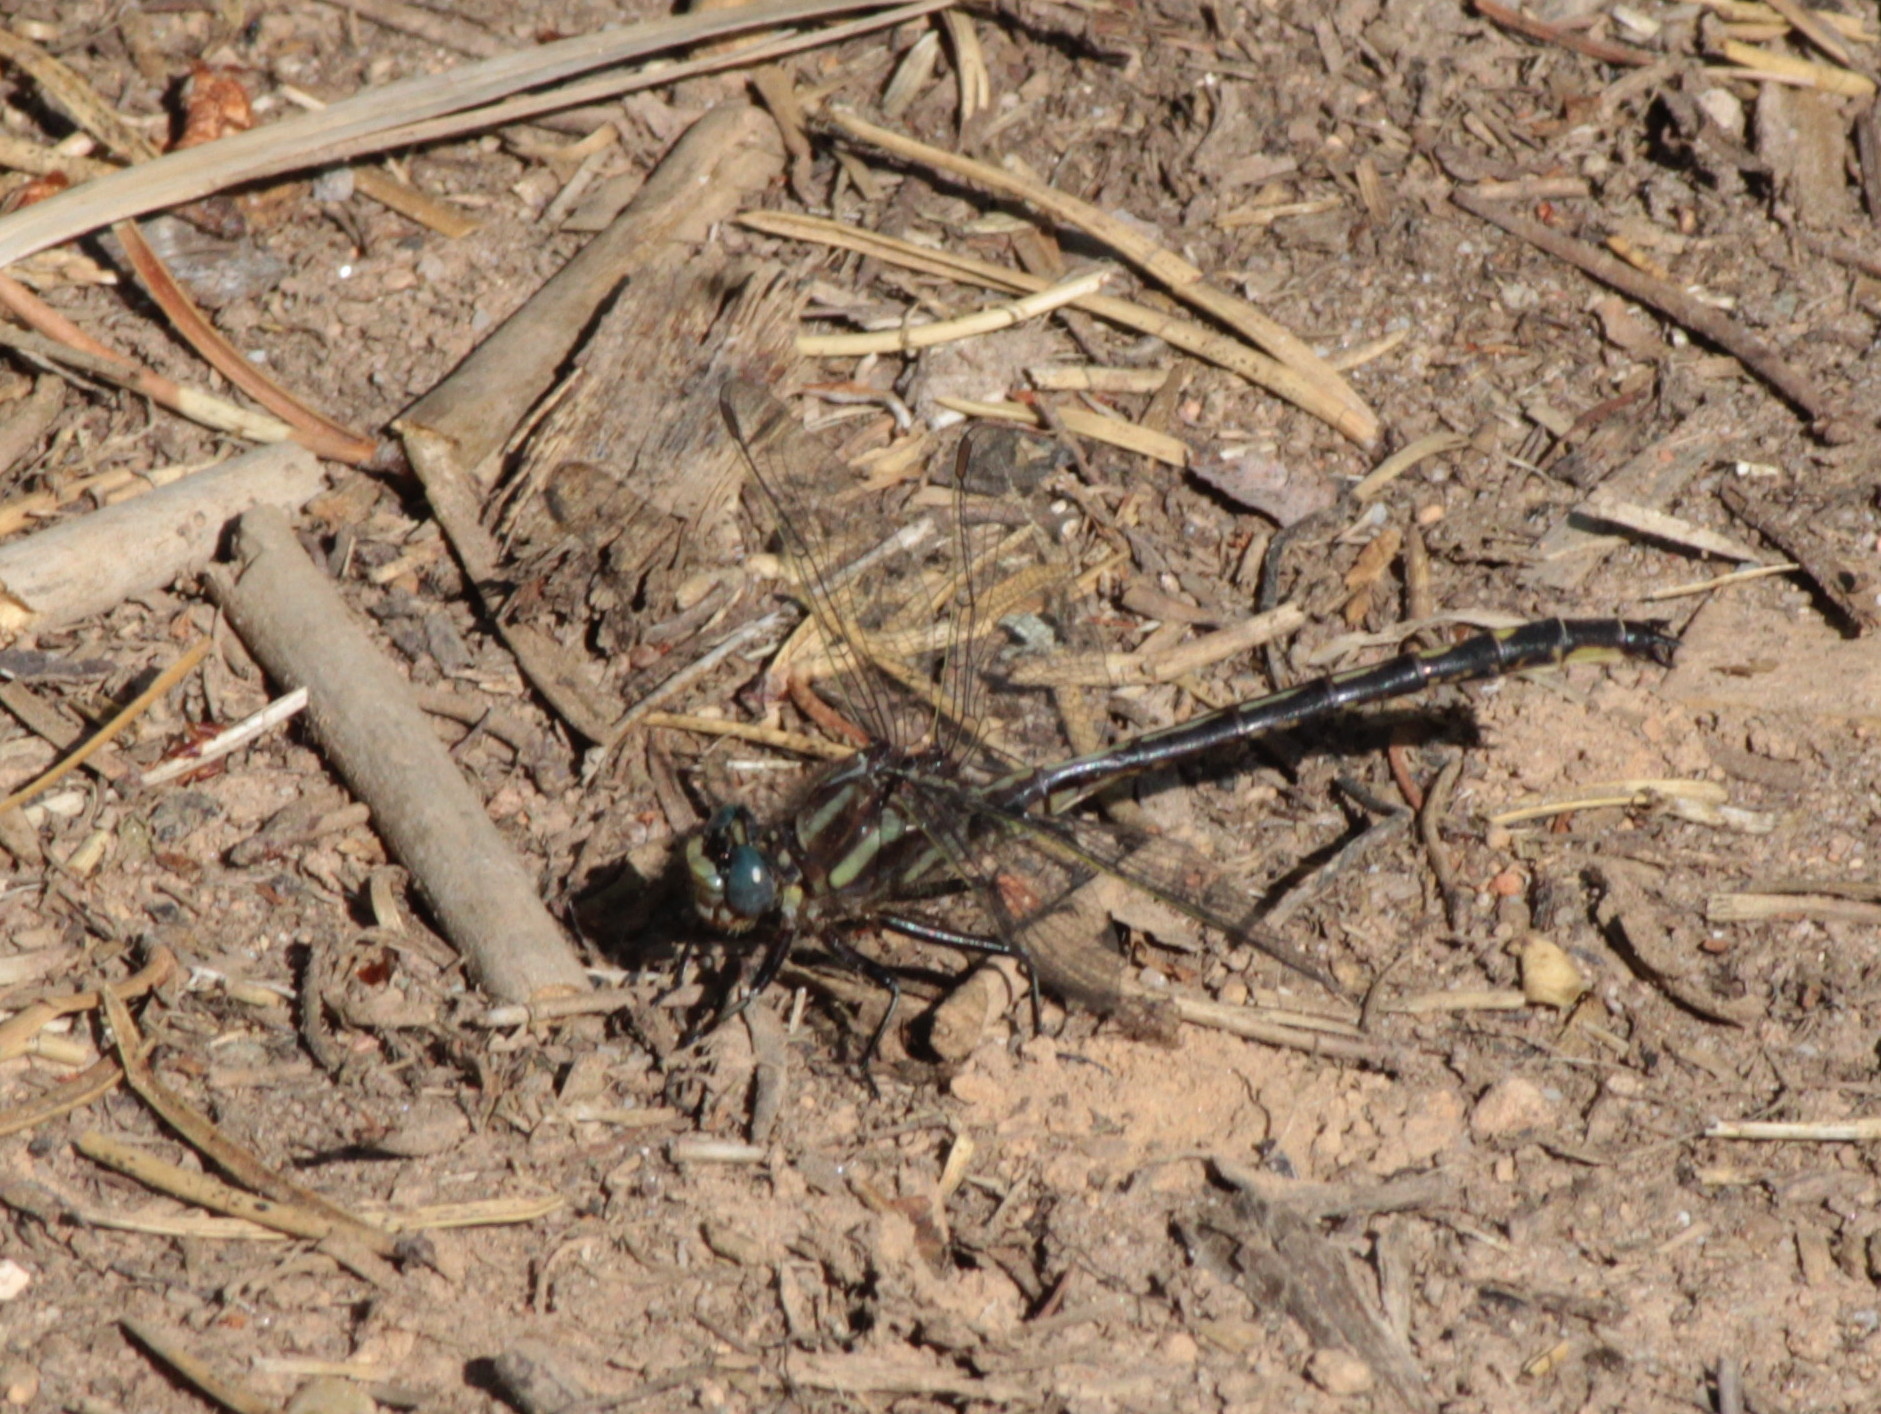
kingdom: Animalia
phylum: Arthropoda
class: Insecta
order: Odonata
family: Gomphidae
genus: Phanogomphus
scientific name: Phanogomphus spicatus
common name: Dusky clubtail
